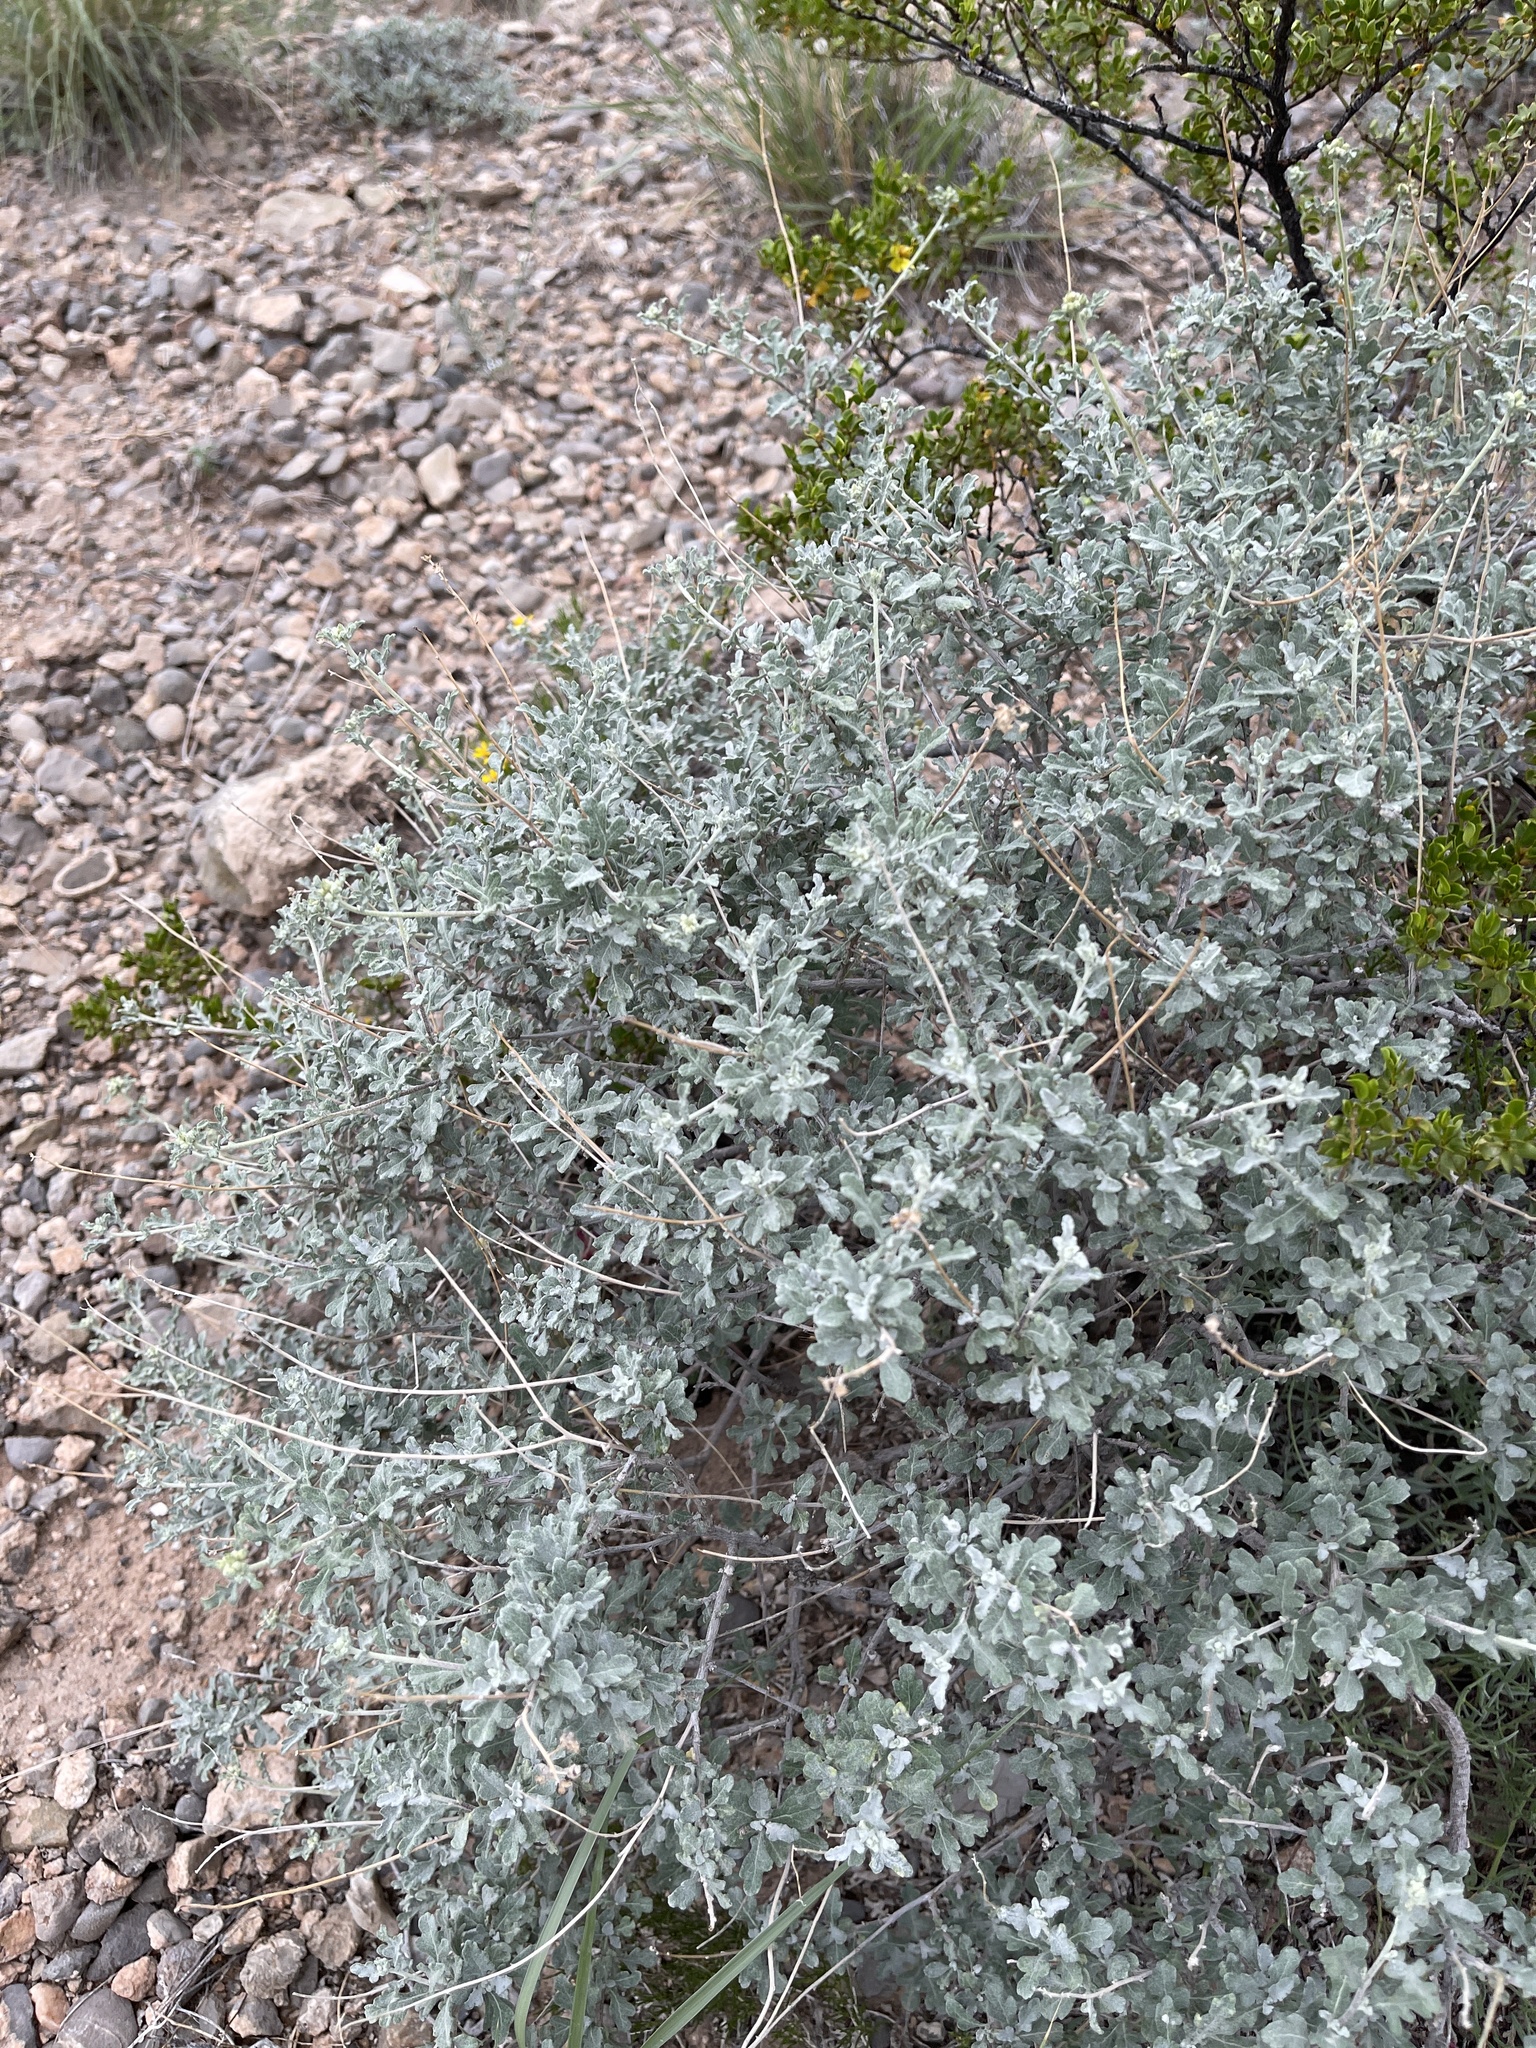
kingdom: Plantae
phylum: Tracheophyta
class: Magnoliopsida
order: Asterales
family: Asteraceae
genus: Parthenium
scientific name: Parthenium incanum
